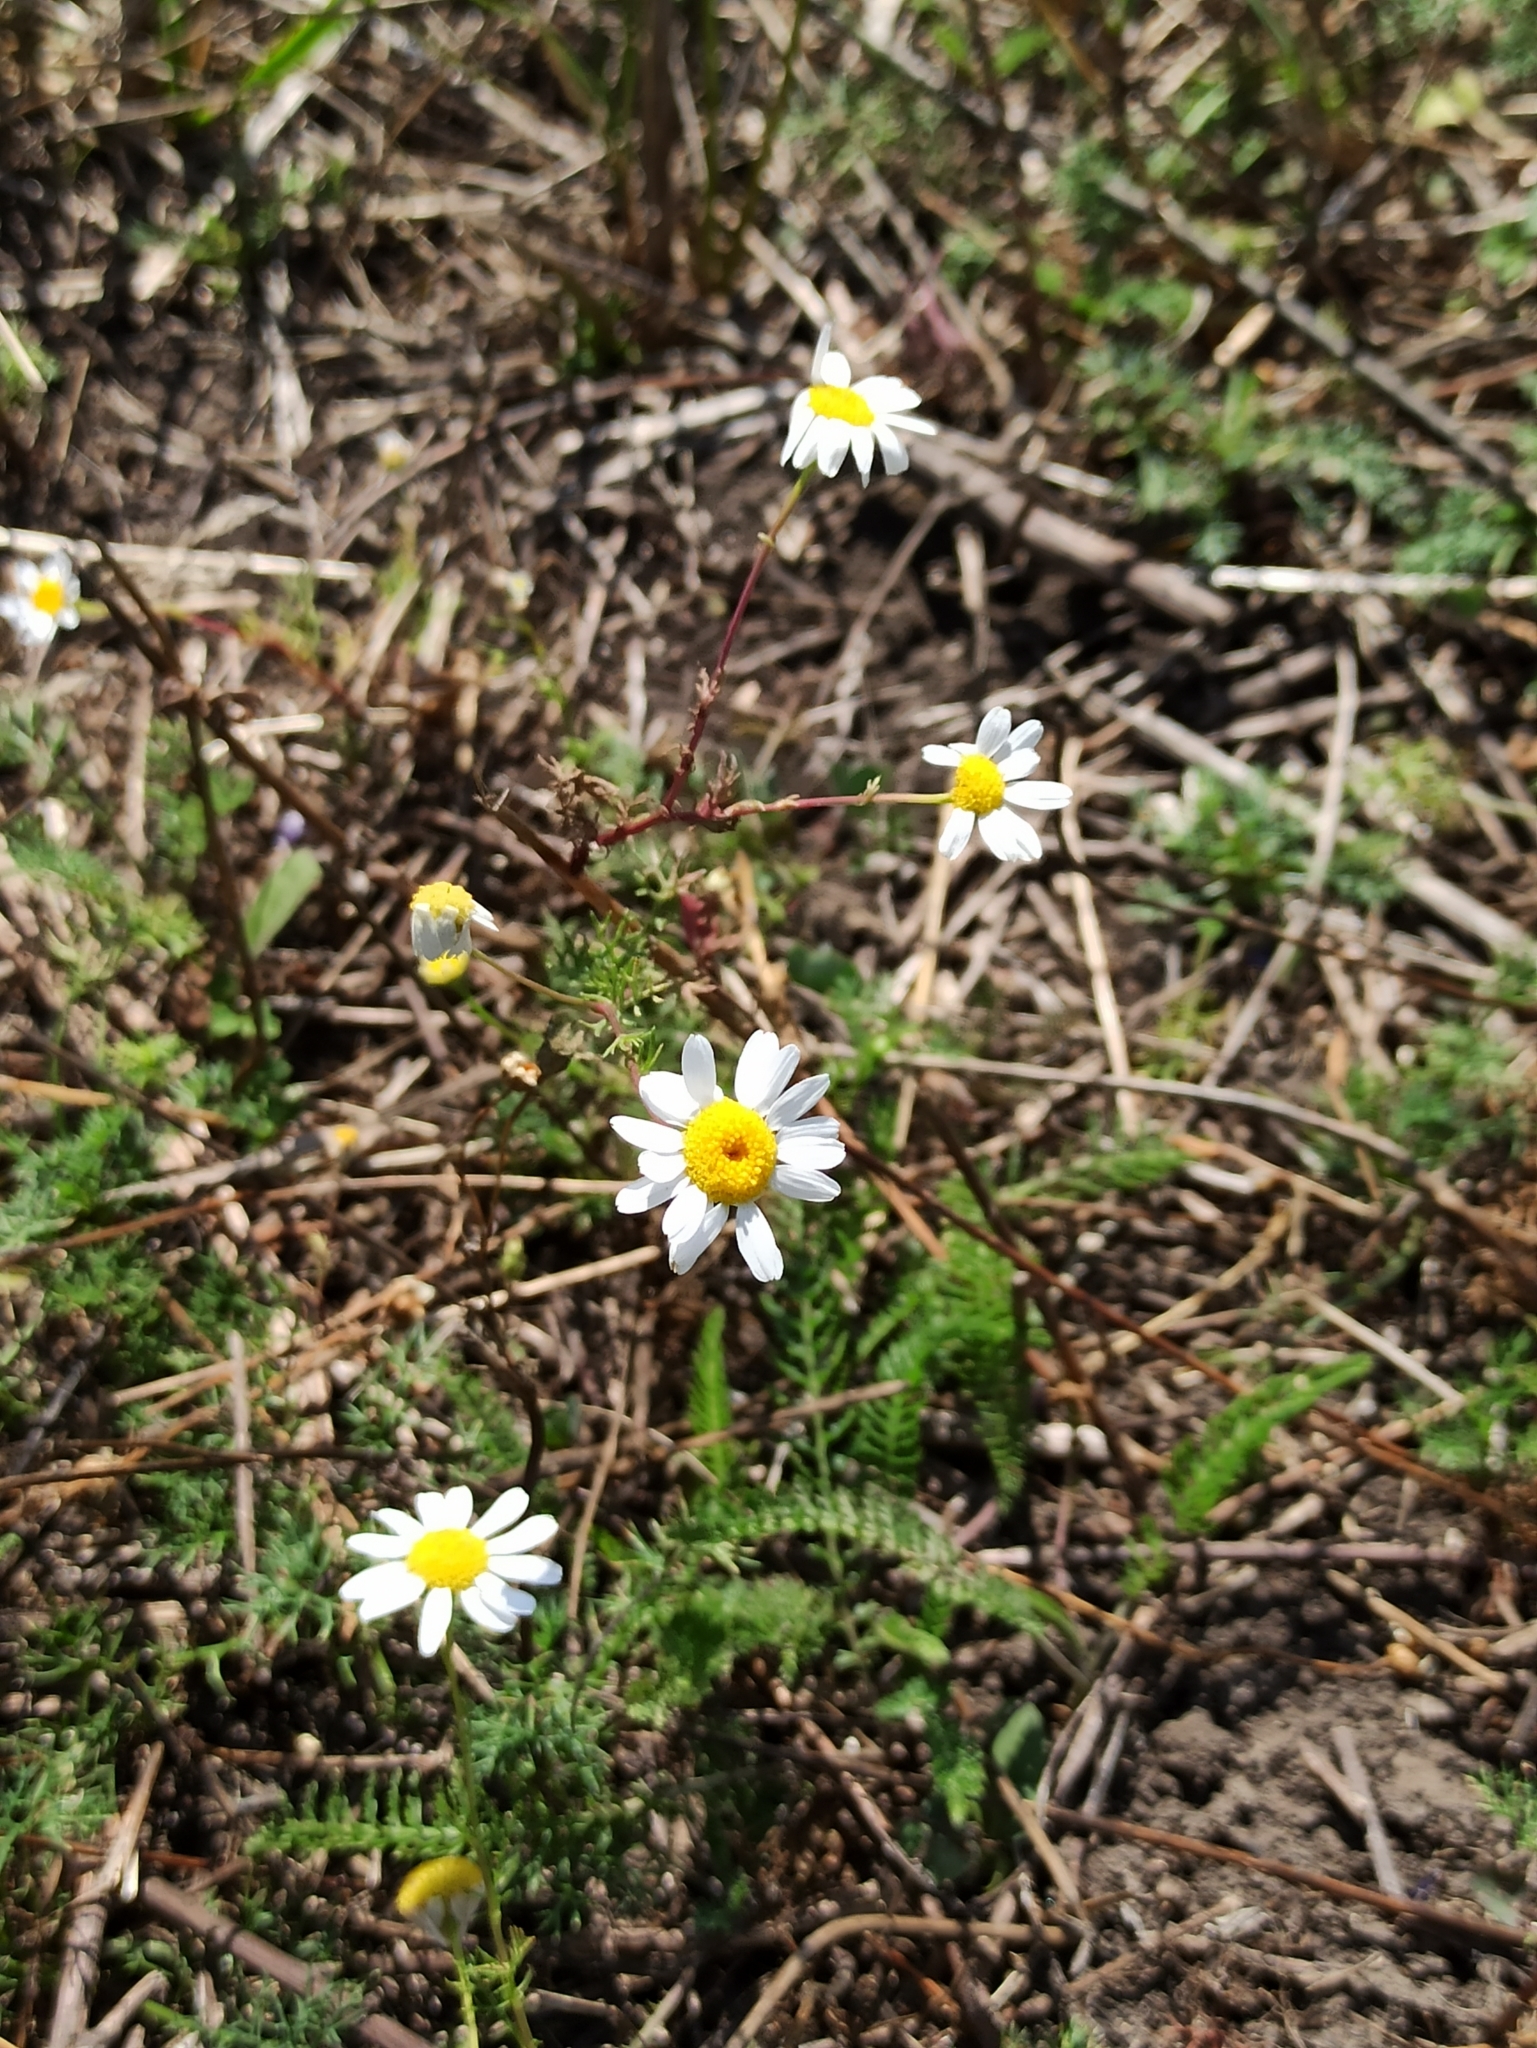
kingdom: Plantae
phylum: Tracheophyta
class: Magnoliopsida
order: Asterales
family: Asteraceae
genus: Tripleurospermum
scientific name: Tripleurospermum inodorum
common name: Scentless mayweed
